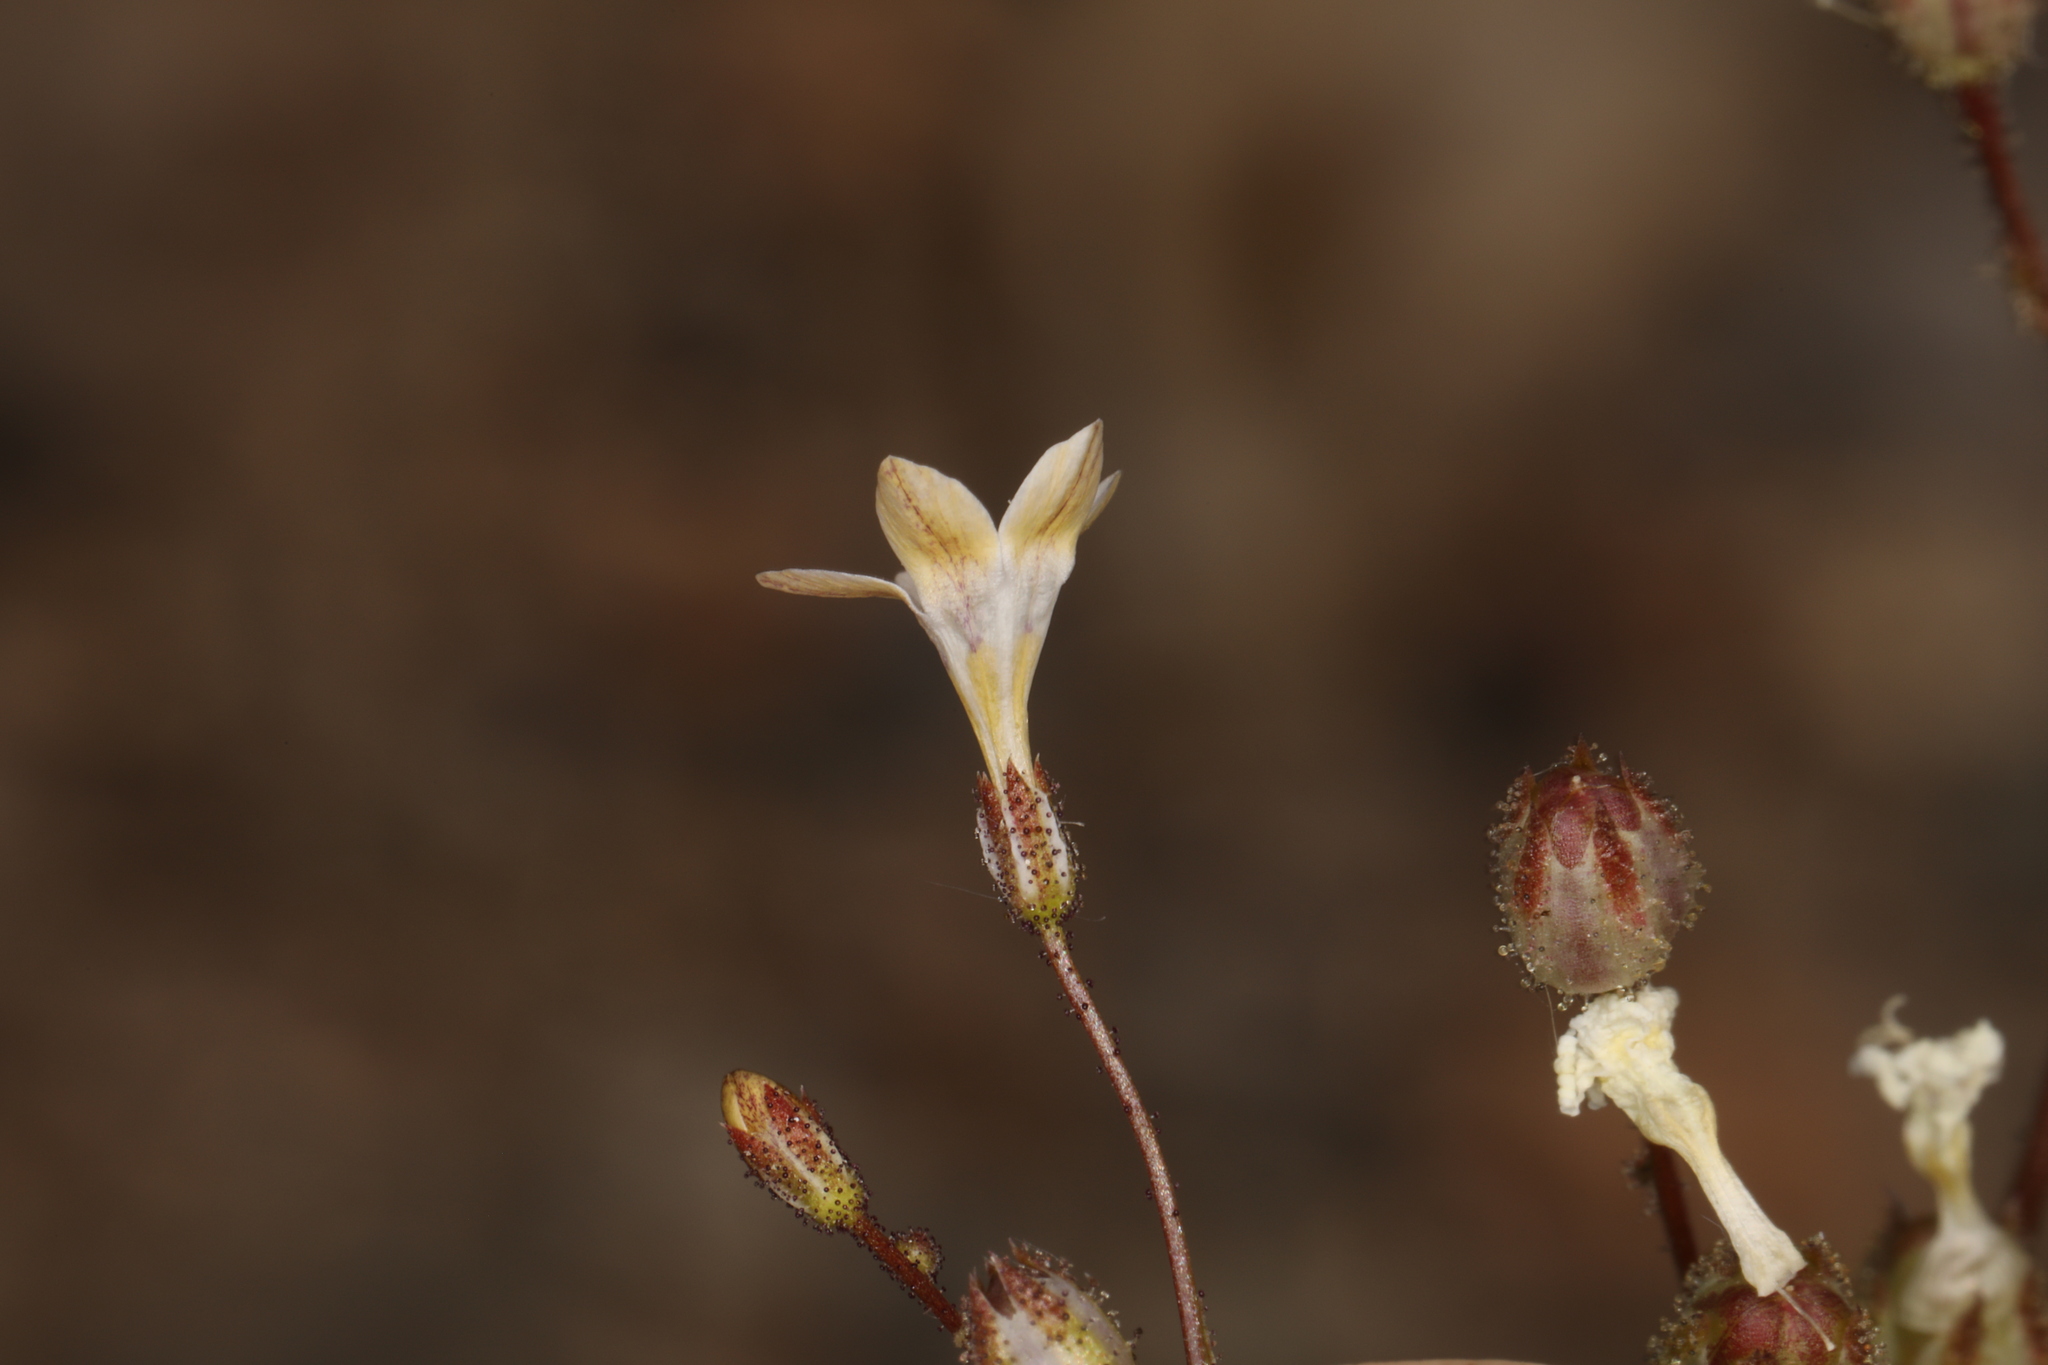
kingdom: Plantae
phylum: Tracheophyta
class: Magnoliopsida
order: Ericales
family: Polemoniaceae
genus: Gilia
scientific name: Gilia stellata
